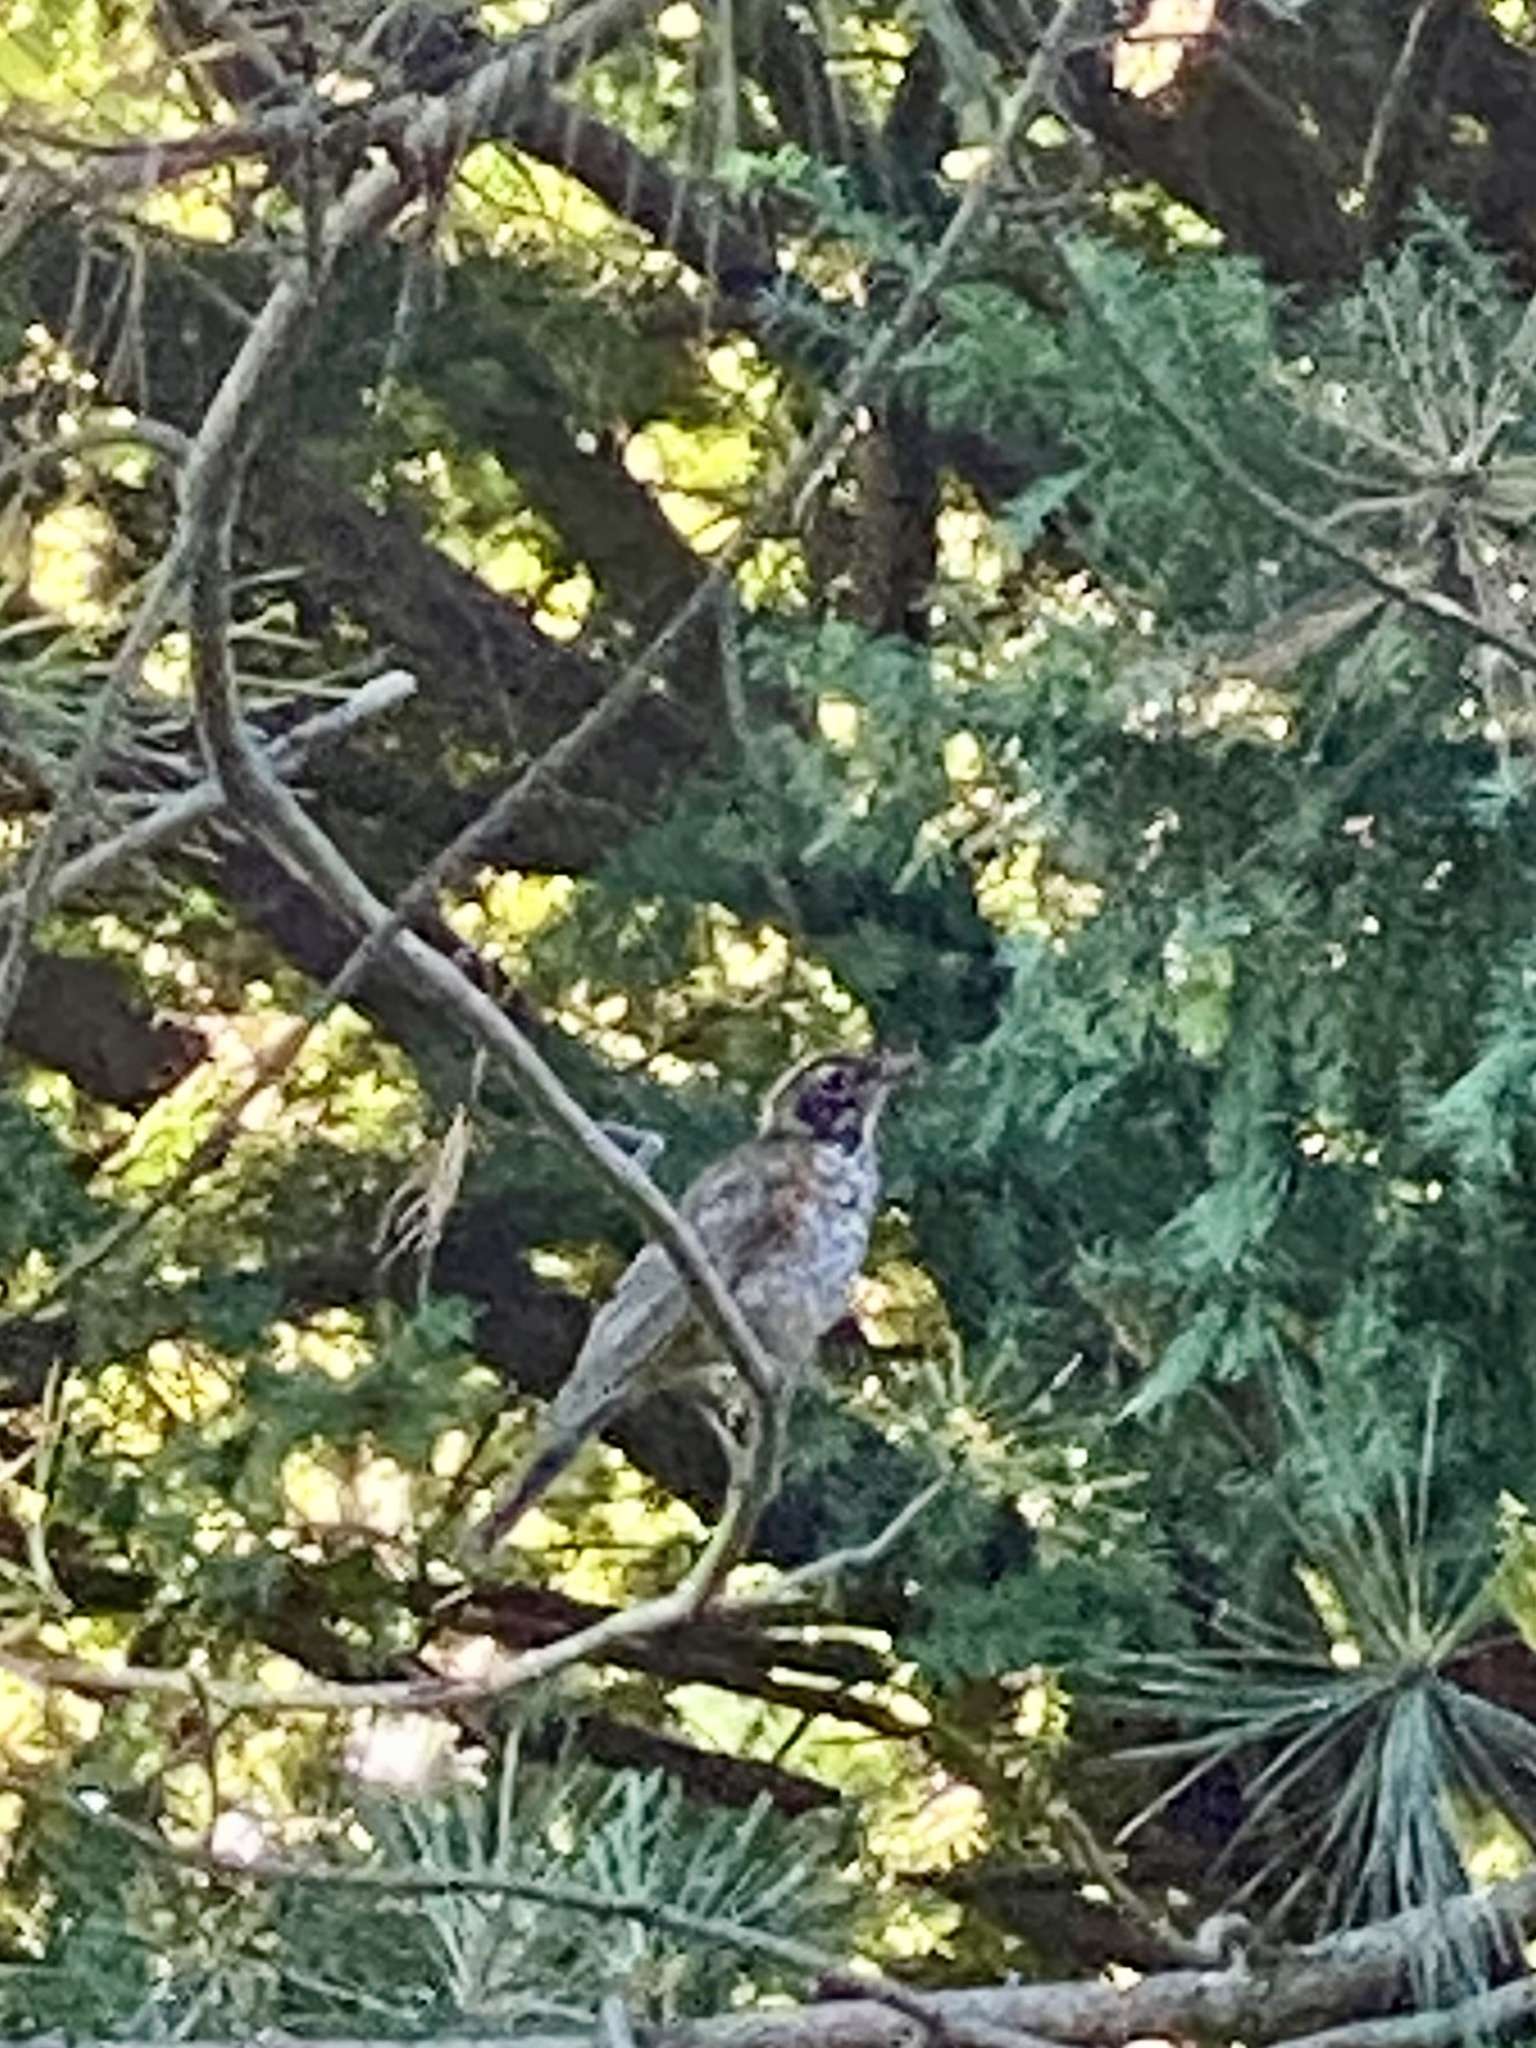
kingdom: Animalia
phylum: Chordata
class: Aves
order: Passeriformes
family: Turdidae
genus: Turdus
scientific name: Turdus migratorius
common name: American robin
